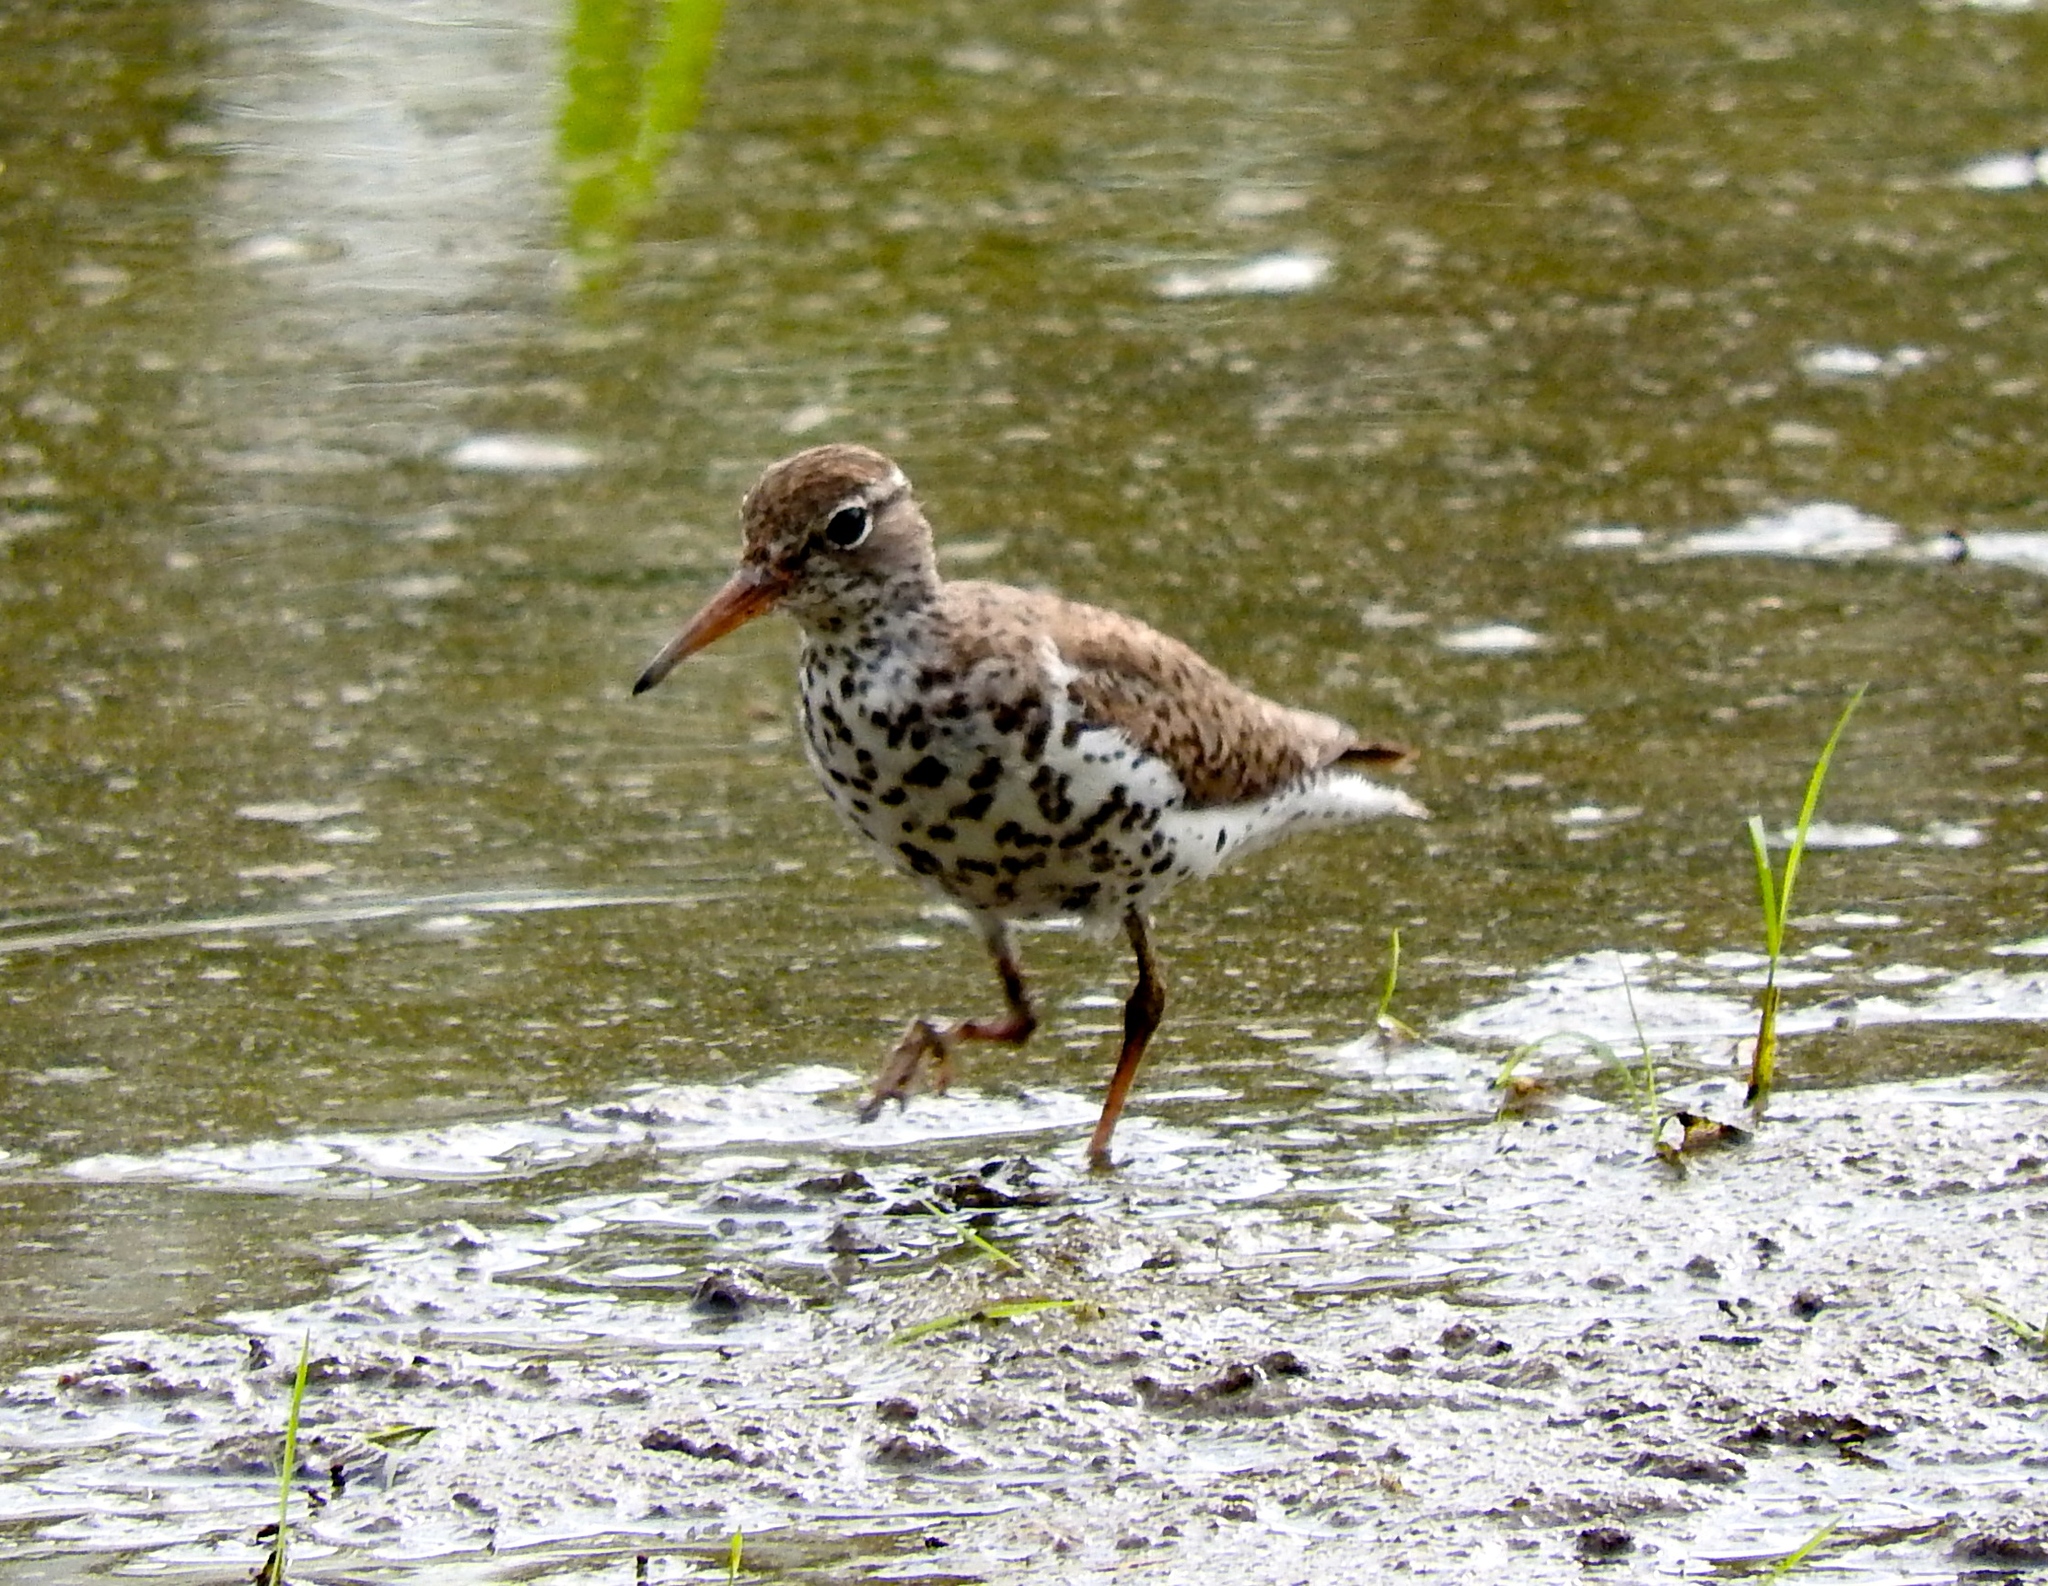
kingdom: Animalia
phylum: Chordata
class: Aves
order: Charadriiformes
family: Scolopacidae
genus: Actitis
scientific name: Actitis macularius
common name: Spotted sandpiper
